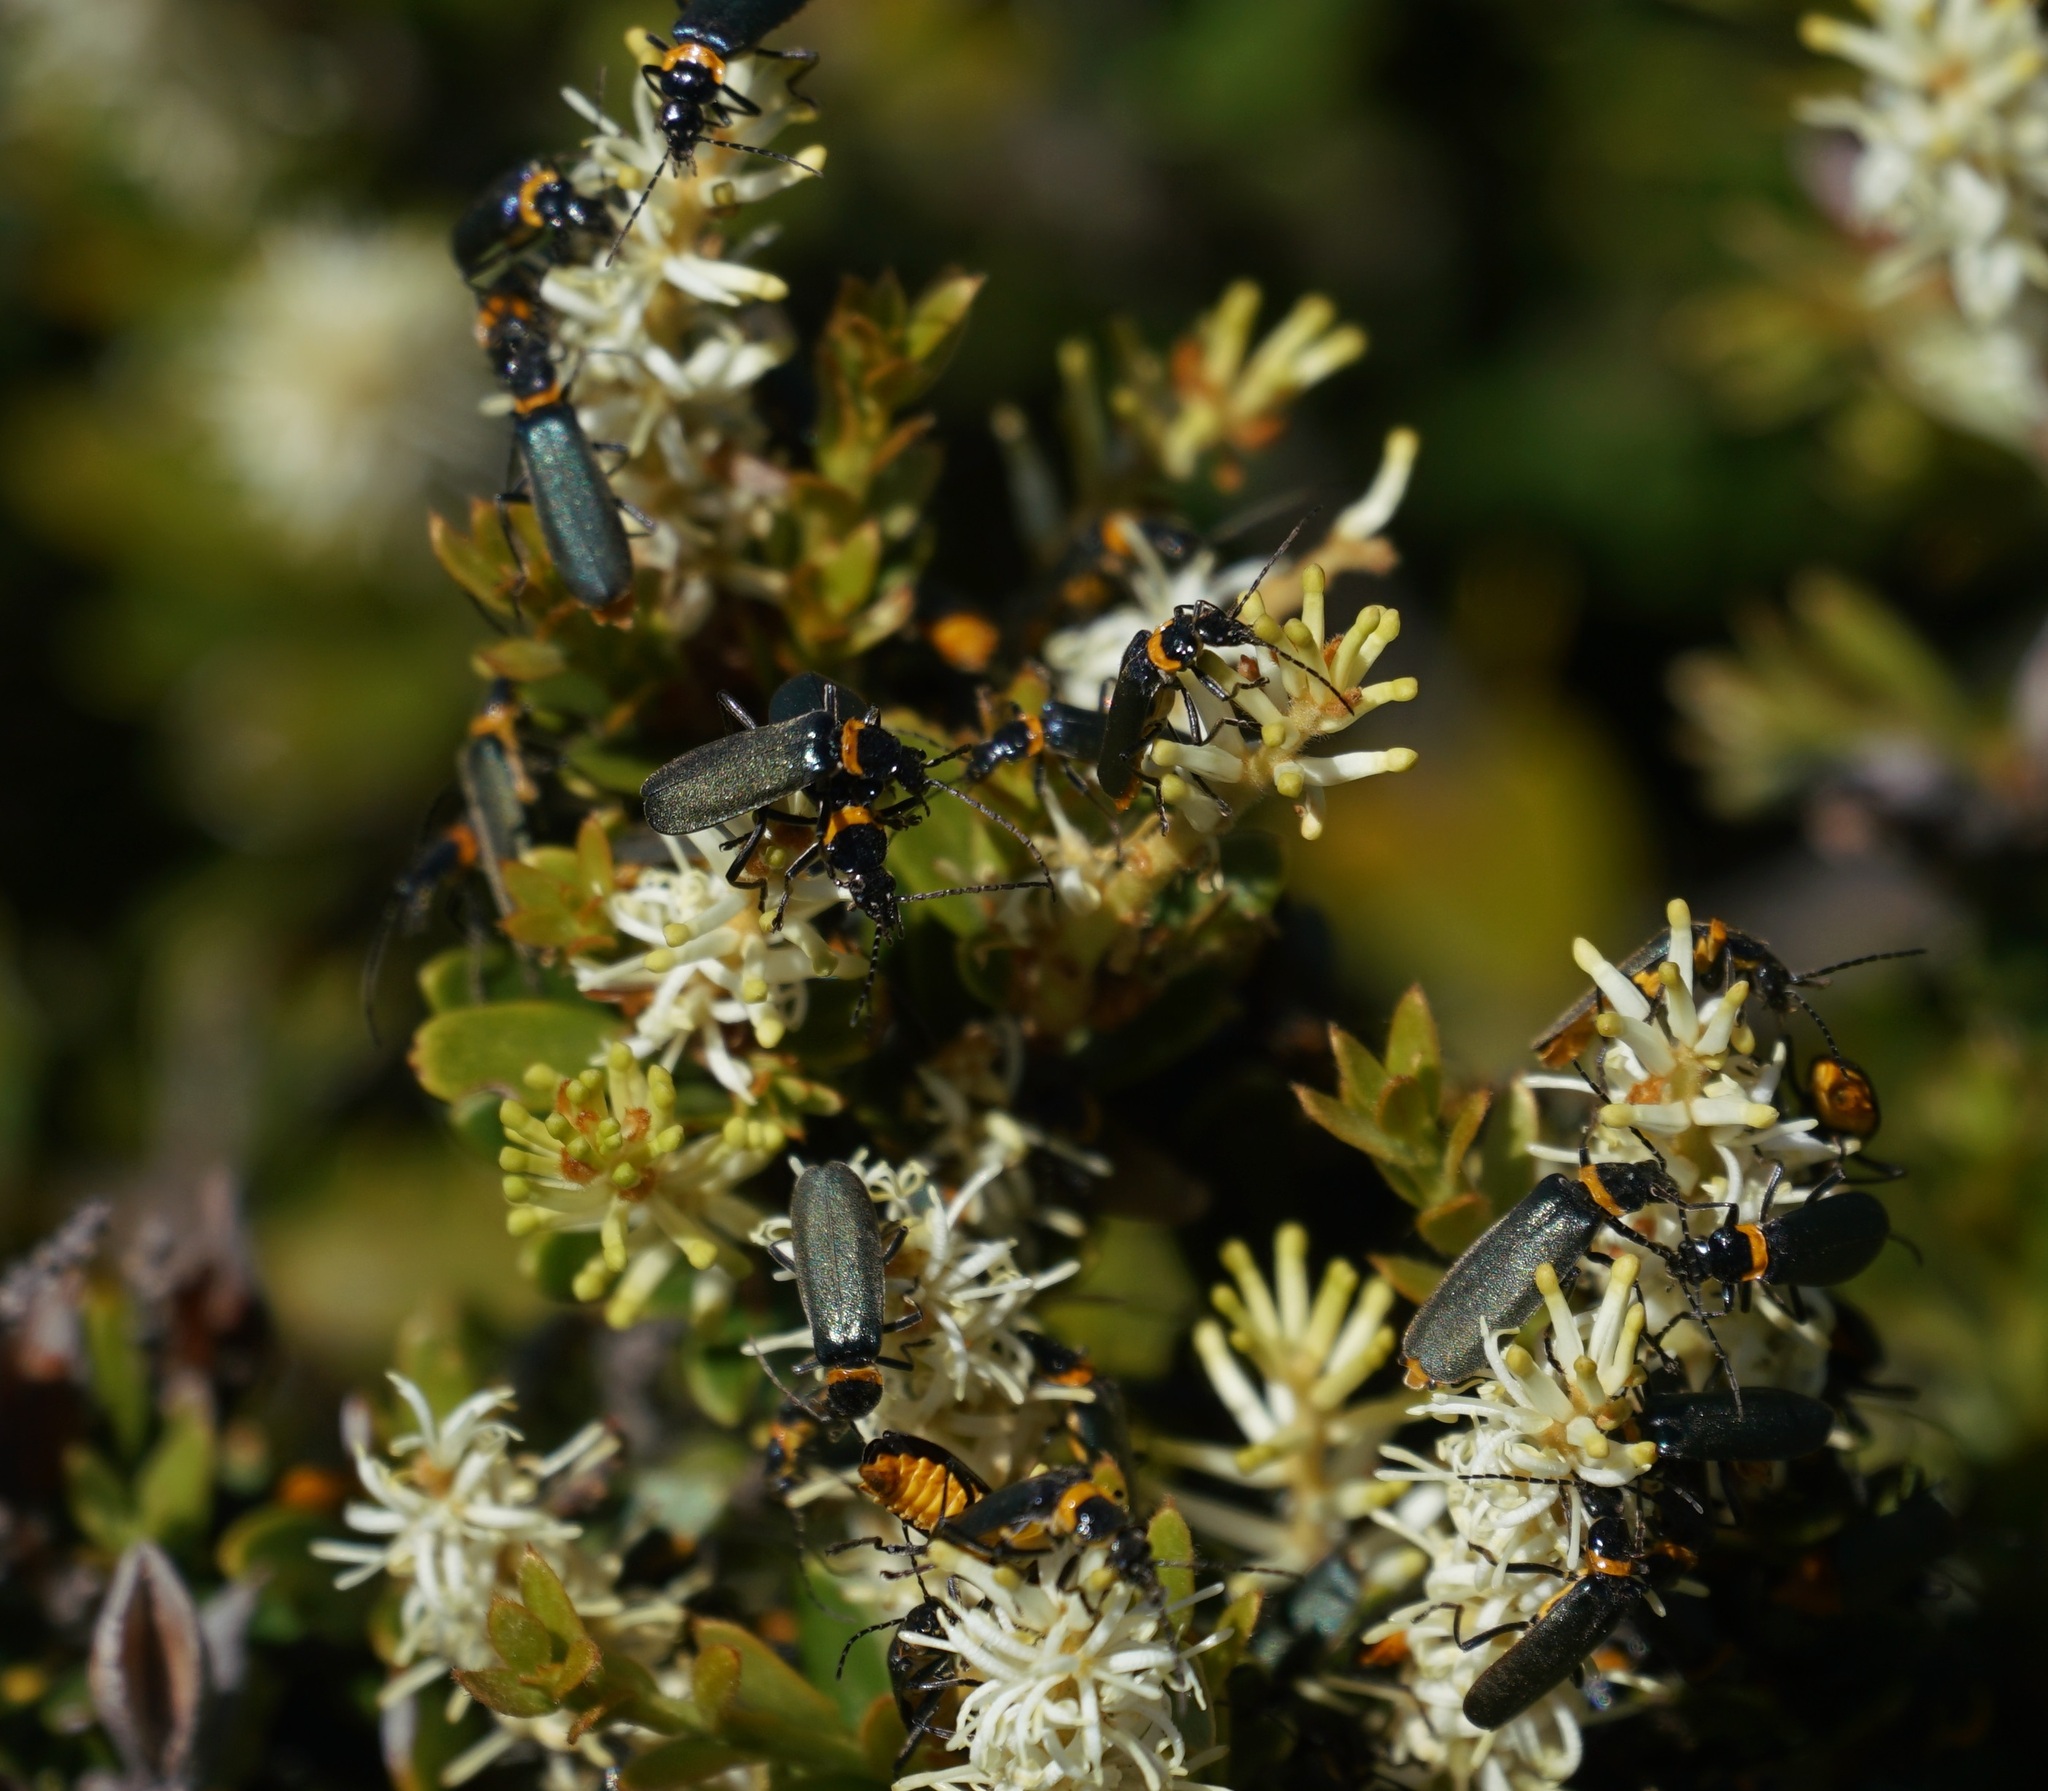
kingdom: Animalia
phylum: Arthropoda
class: Insecta
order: Coleoptera
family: Cantharidae
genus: Chauliognathus
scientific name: Chauliognathus
